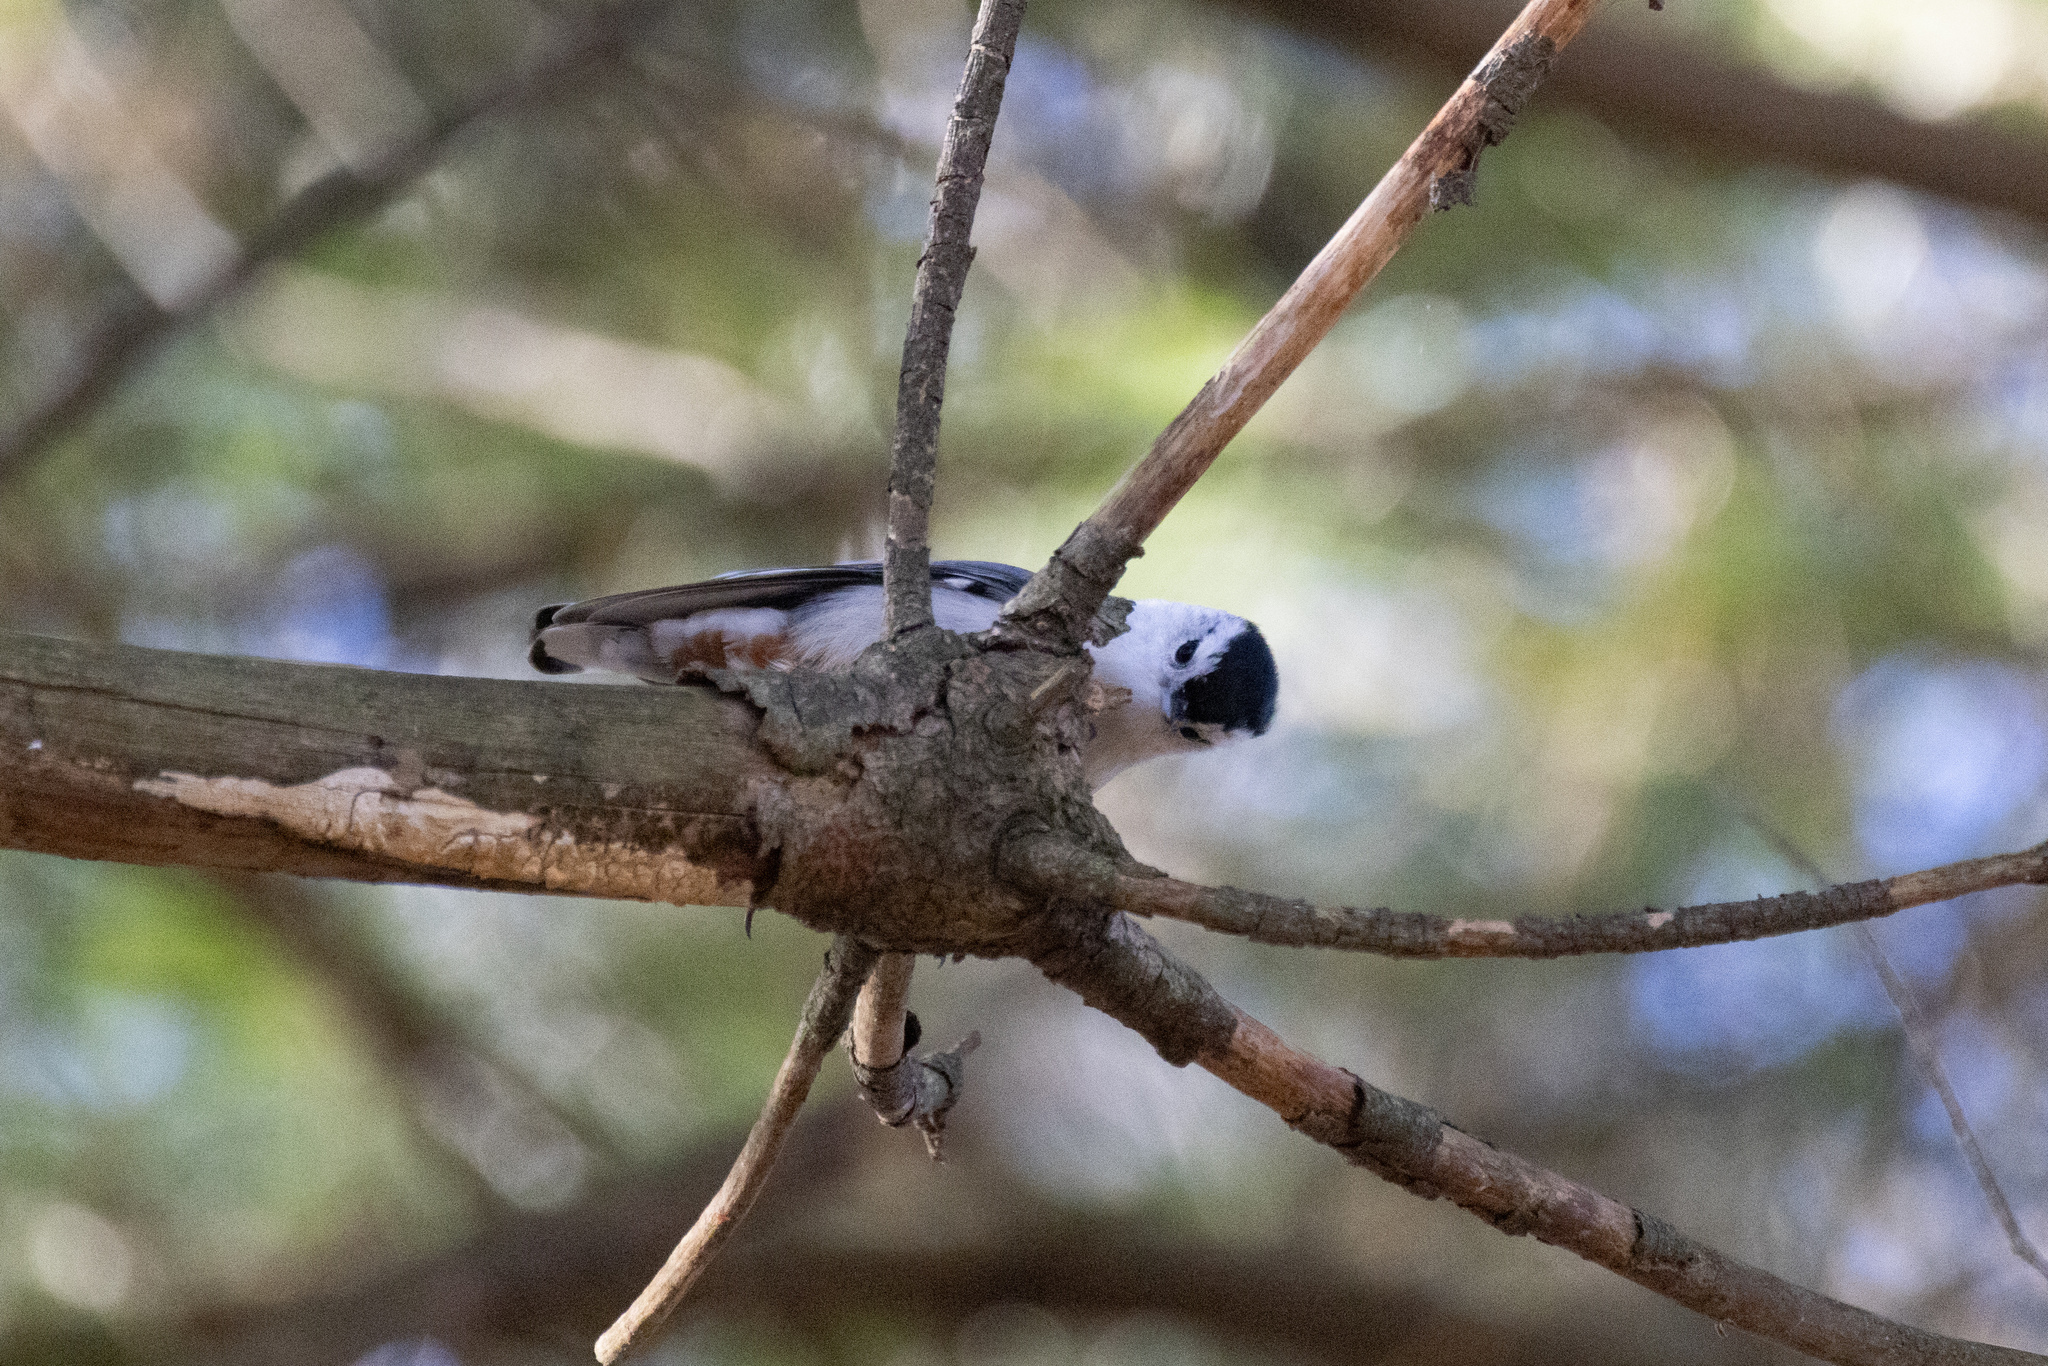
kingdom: Animalia
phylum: Chordata
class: Aves
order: Passeriformes
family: Sittidae
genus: Sitta
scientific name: Sitta carolinensis
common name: White-breasted nuthatch
